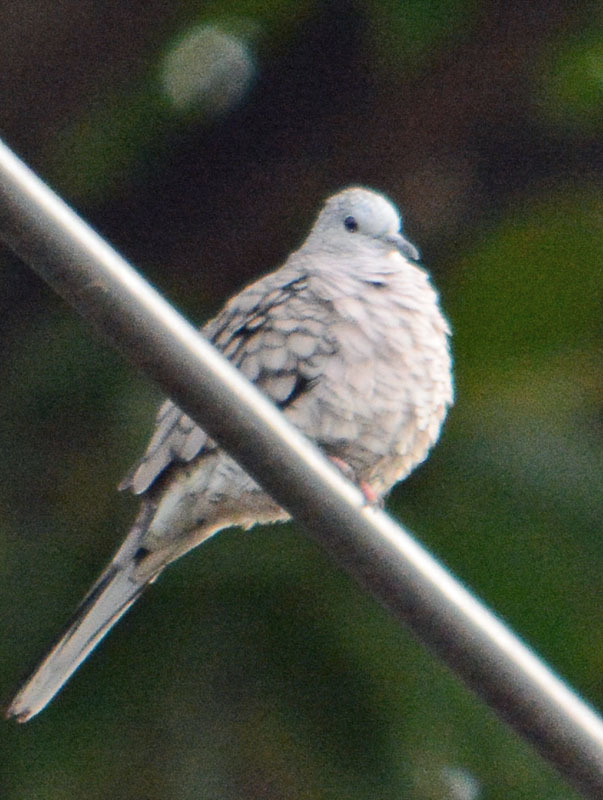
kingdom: Animalia
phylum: Chordata
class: Aves
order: Columbiformes
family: Columbidae
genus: Columbina
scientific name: Columbina inca
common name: Inca dove
